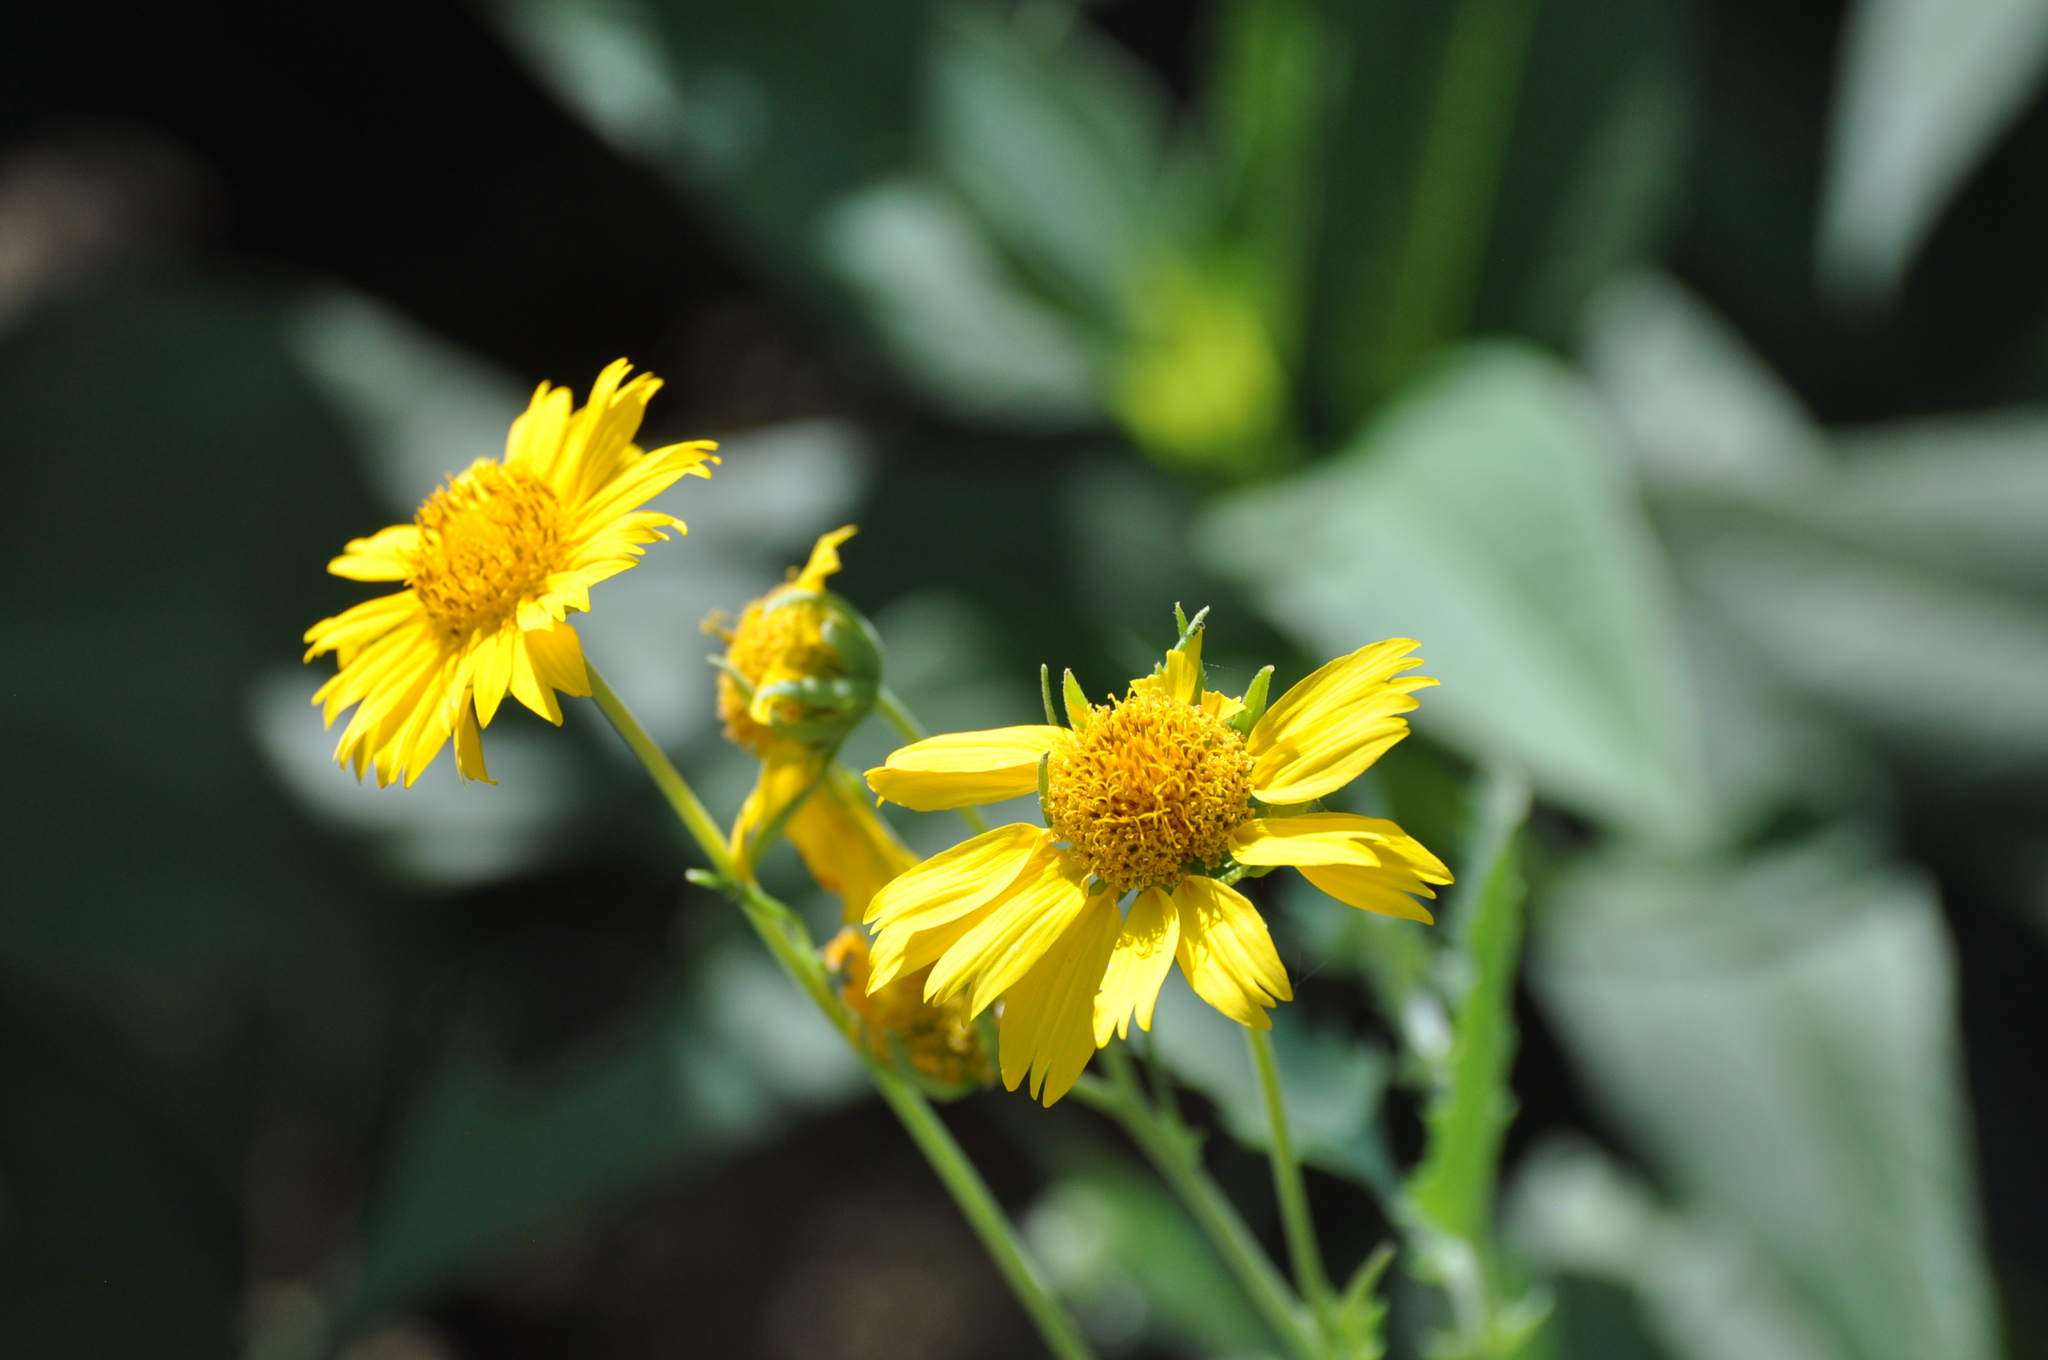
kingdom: Plantae
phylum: Tracheophyta
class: Magnoliopsida
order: Asterales
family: Asteraceae
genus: Verbesina
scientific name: Verbesina encelioides
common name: Golden crownbeard
